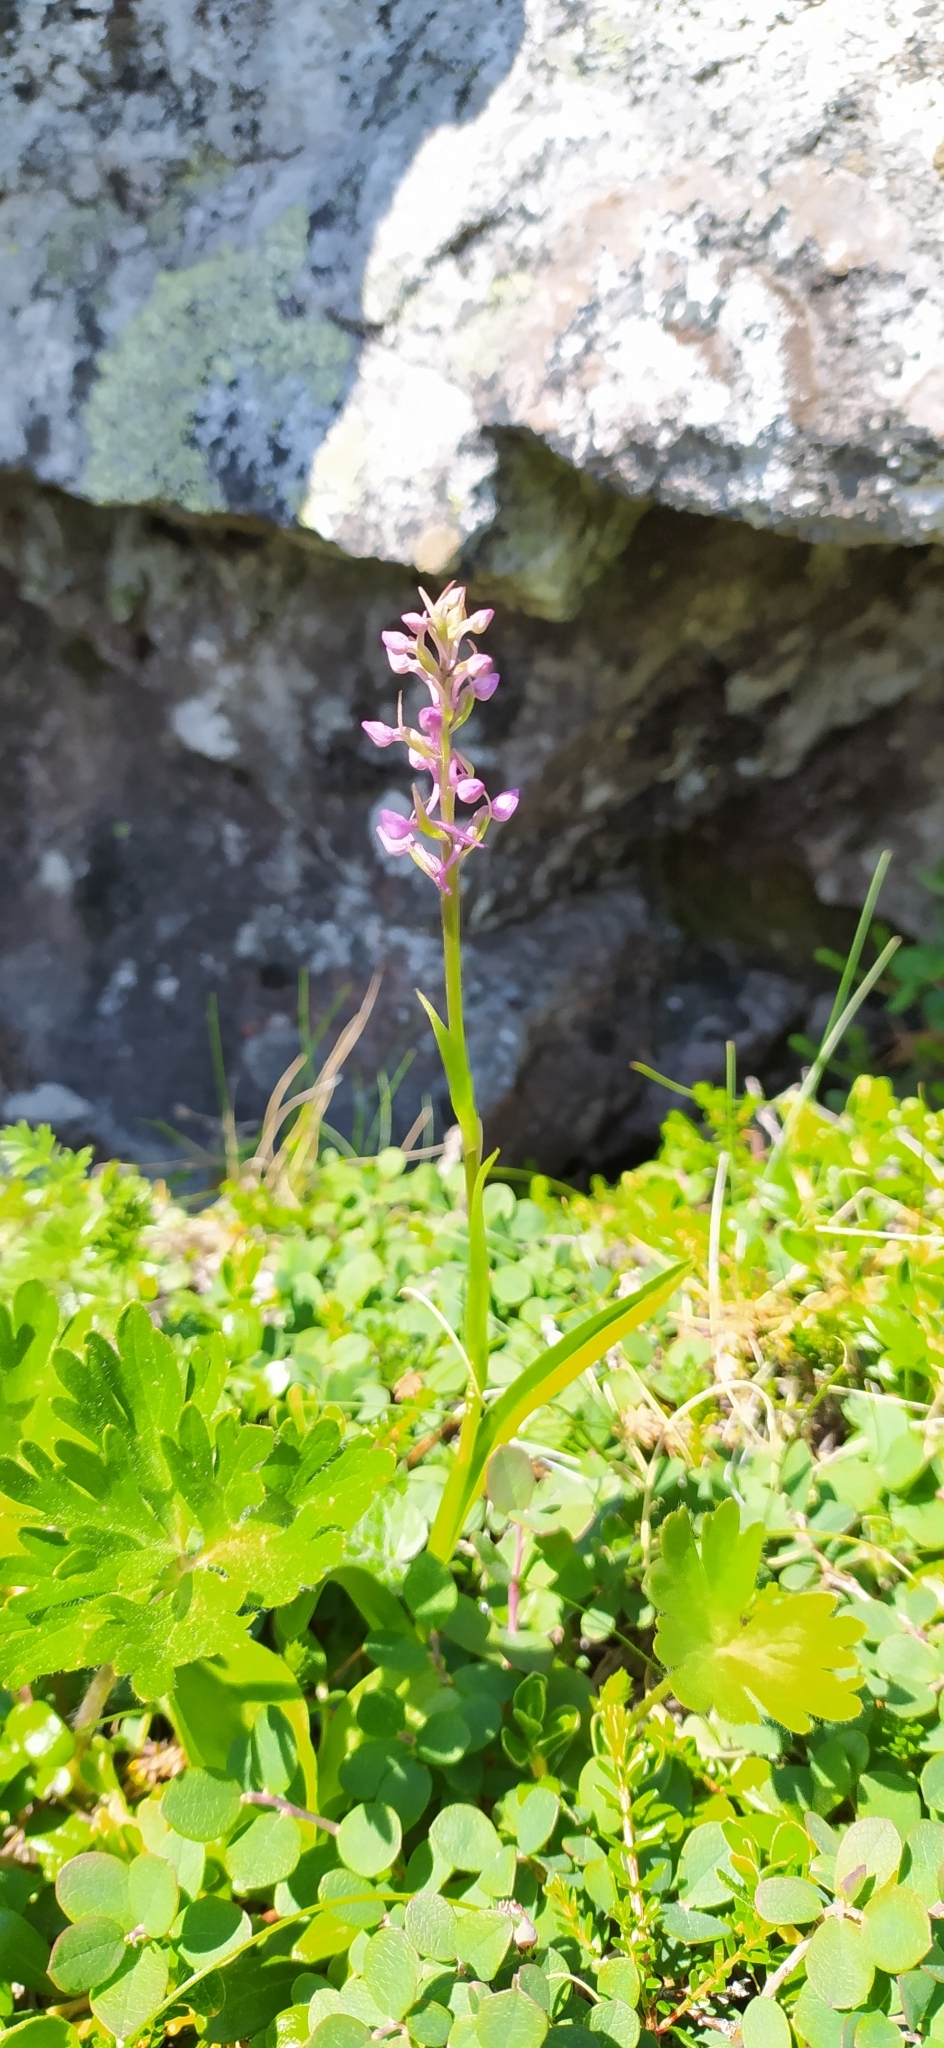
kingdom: Plantae
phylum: Tracheophyta
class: Liliopsida
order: Asparagales
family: Orchidaceae
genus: Gymnadenia
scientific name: Gymnadenia conopsea
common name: Fragrant orchid
